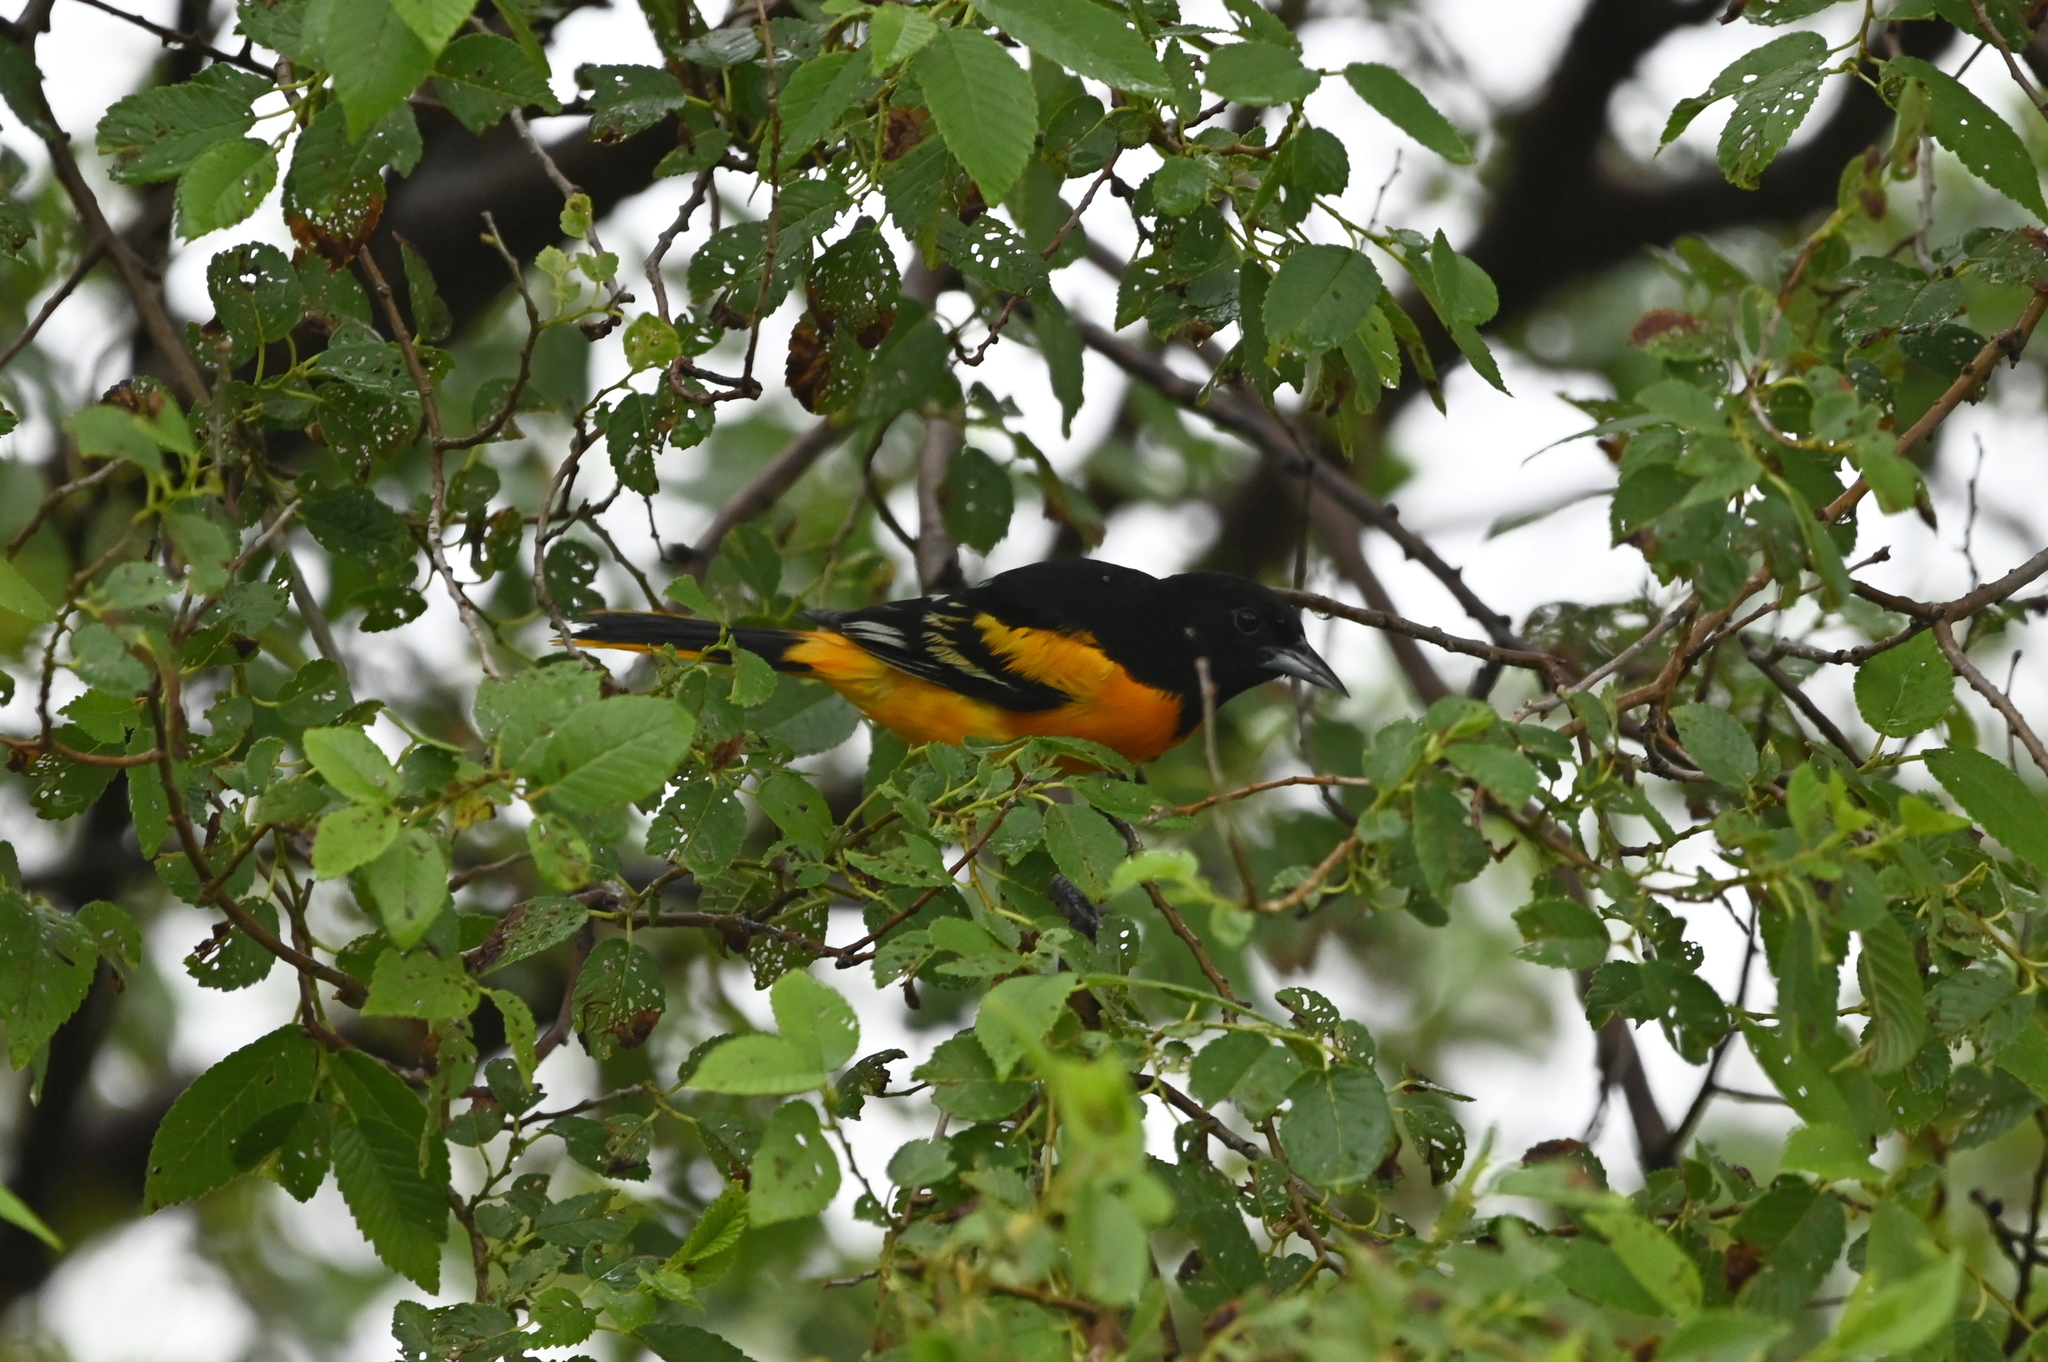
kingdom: Animalia
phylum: Chordata
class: Aves
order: Passeriformes
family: Icteridae
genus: Icterus
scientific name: Icterus galbula
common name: Baltimore oriole
